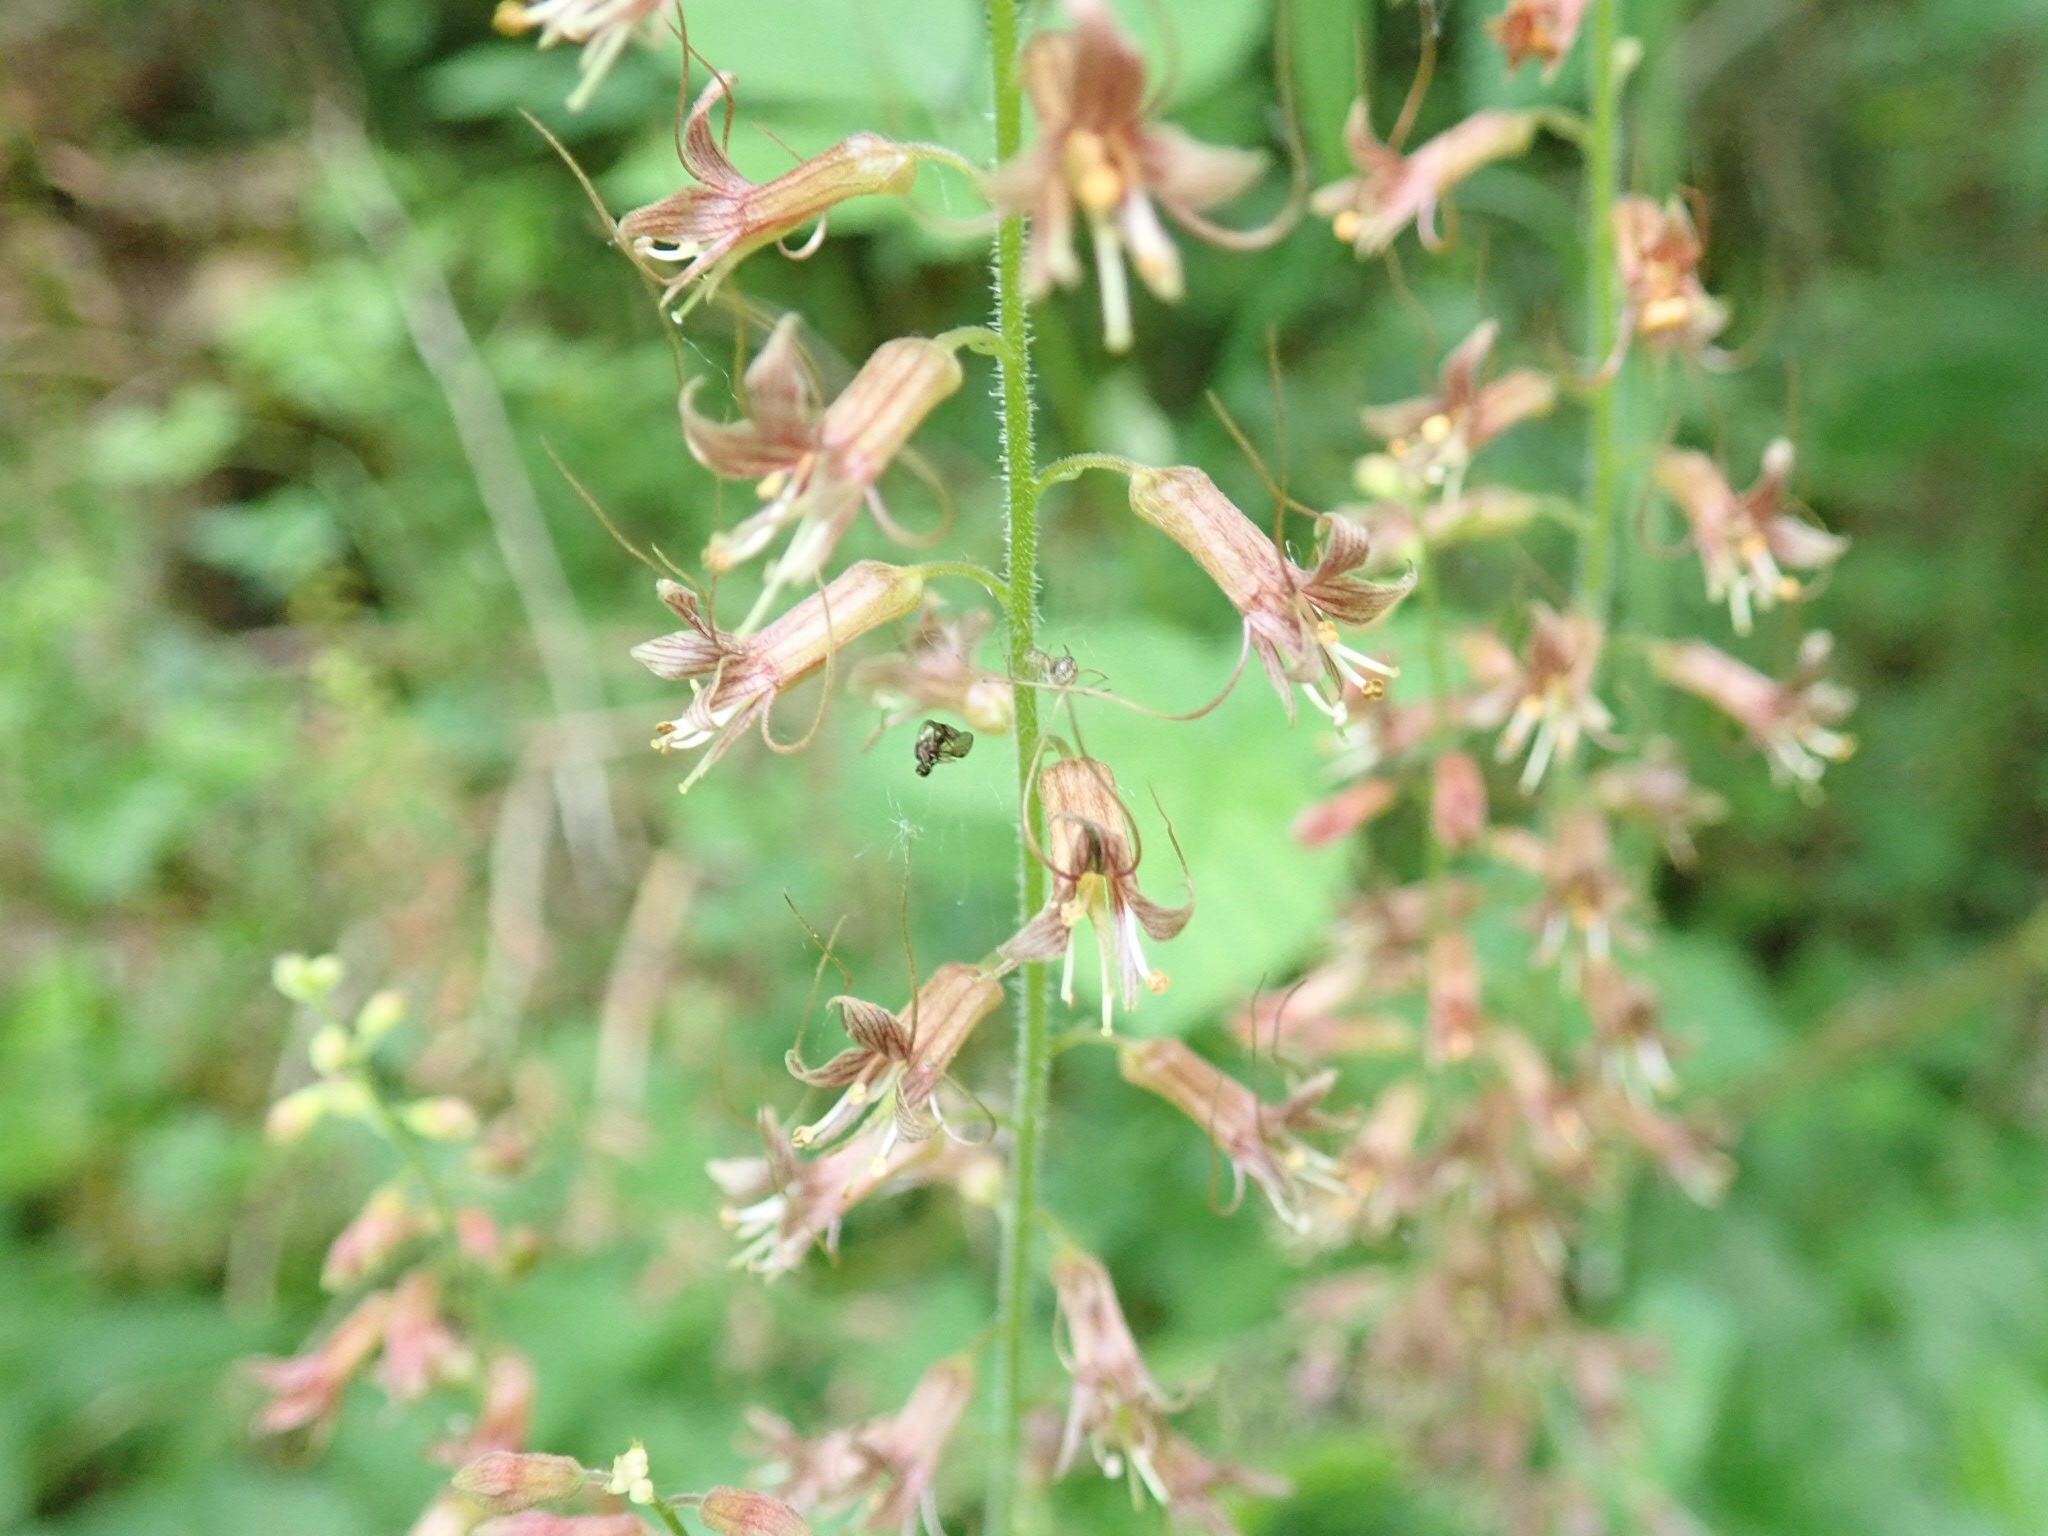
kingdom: Plantae
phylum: Tracheophyta
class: Magnoliopsida
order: Saxifragales
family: Saxifragaceae
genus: Tolmiea
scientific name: Tolmiea menziesii
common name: Pick-a-back-plant
